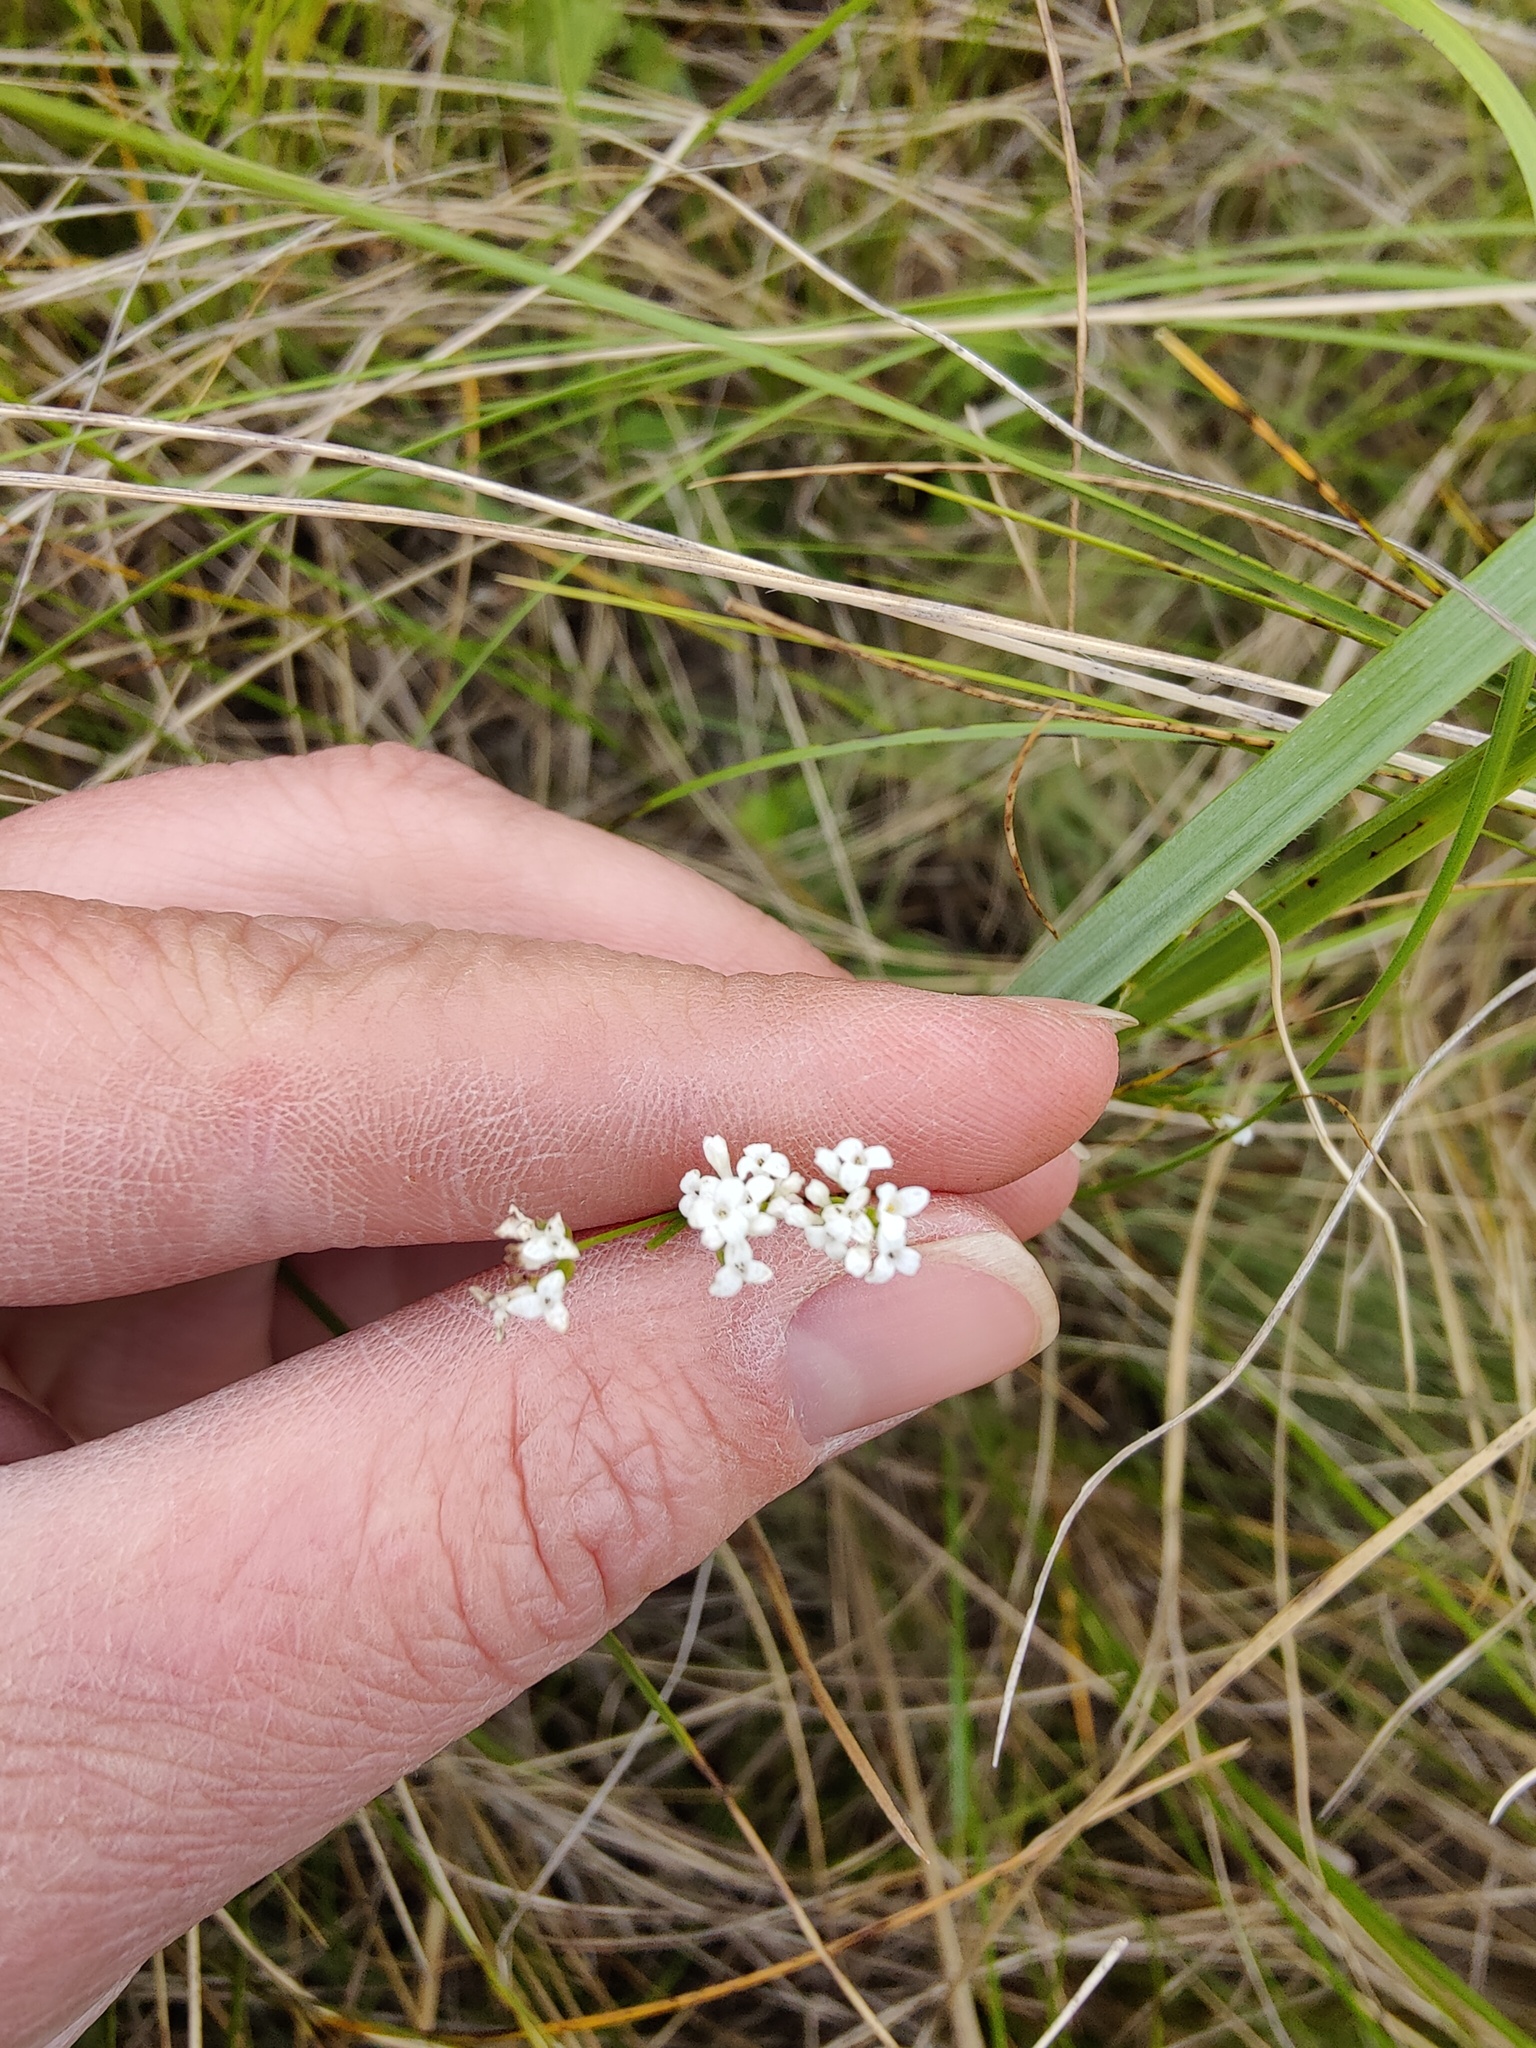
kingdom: Plantae
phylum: Tracheophyta
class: Magnoliopsida
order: Gentianales
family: Rubiaceae
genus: Asperula
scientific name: Asperula tinctoria
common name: Dyer's woodruff
